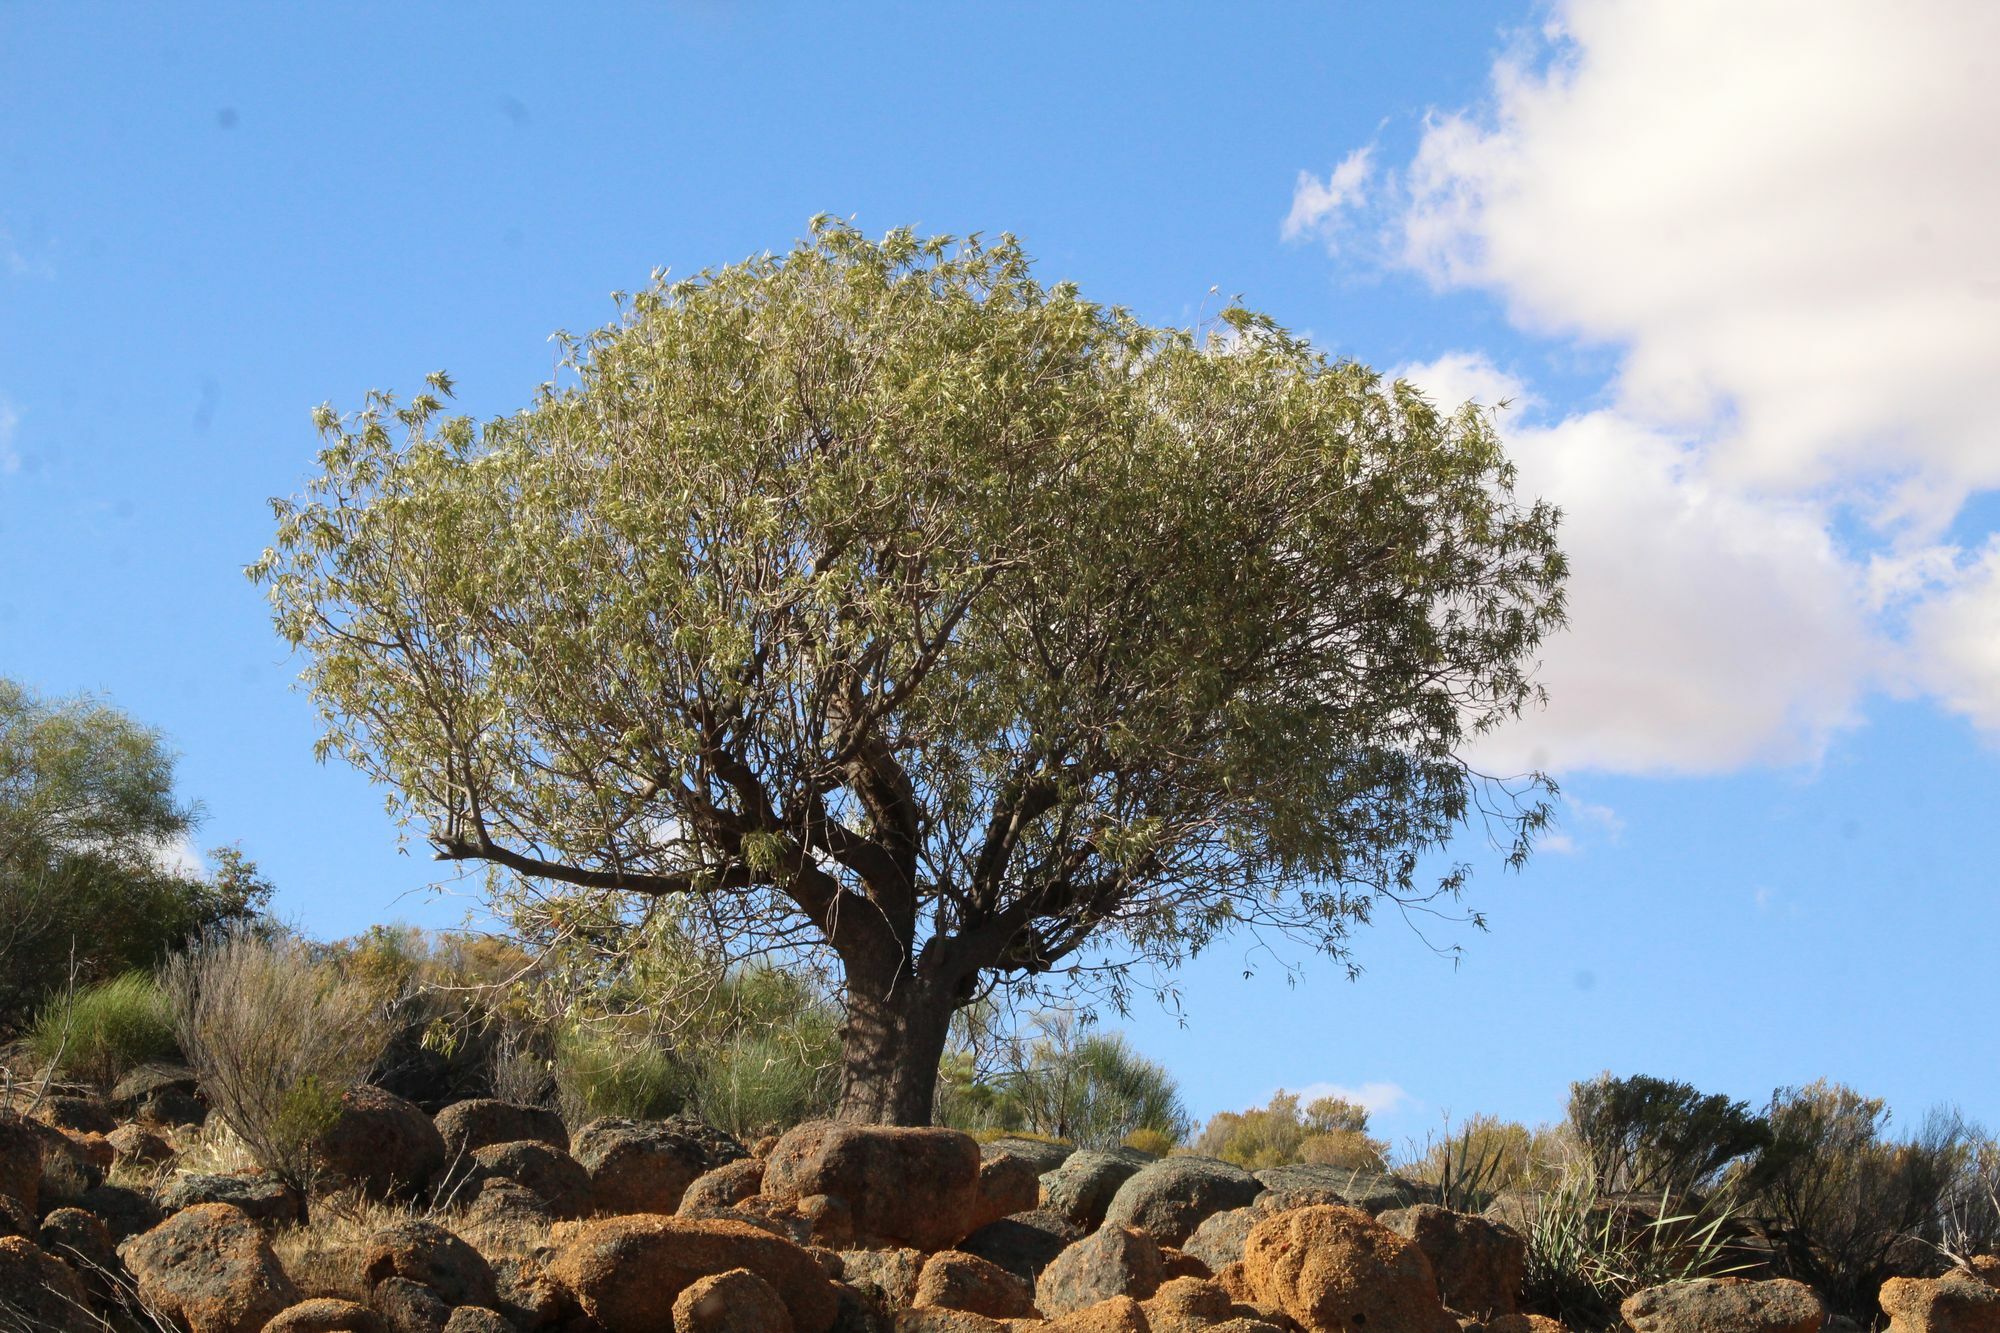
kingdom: Plantae
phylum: Tracheophyta
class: Magnoliopsida
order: Malvales
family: Malvaceae
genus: Brachychiton
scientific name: Brachychiton gregorii
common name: Desert kurrajong
